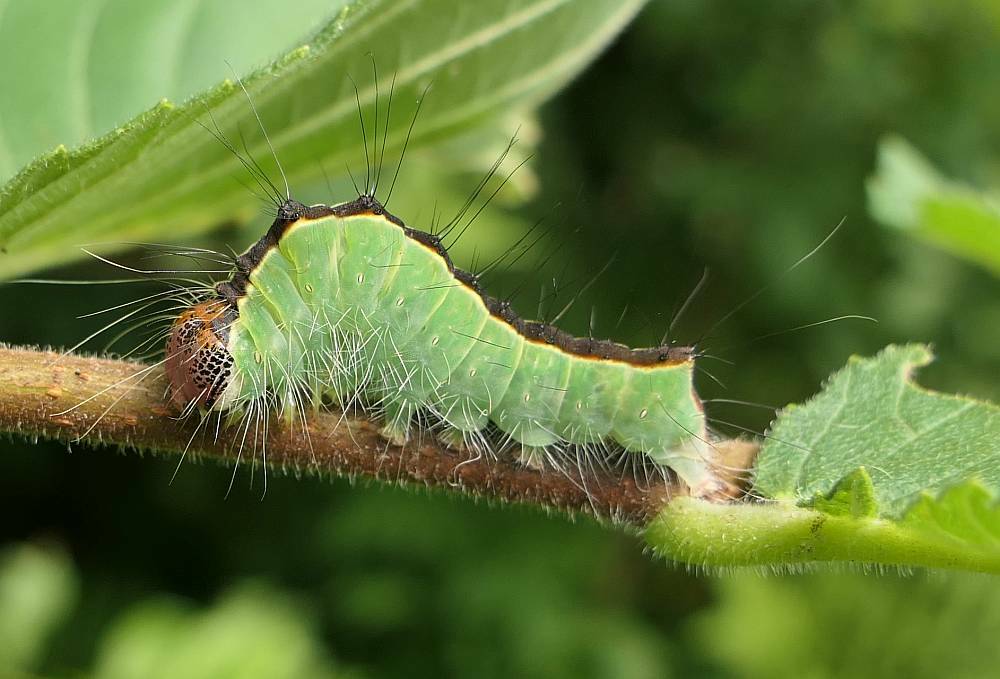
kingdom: Animalia
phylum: Arthropoda
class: Insecta
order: Lepidoptera
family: Noctuidae
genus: Acronicta
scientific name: Acronicta superans
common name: Splendid dagger
